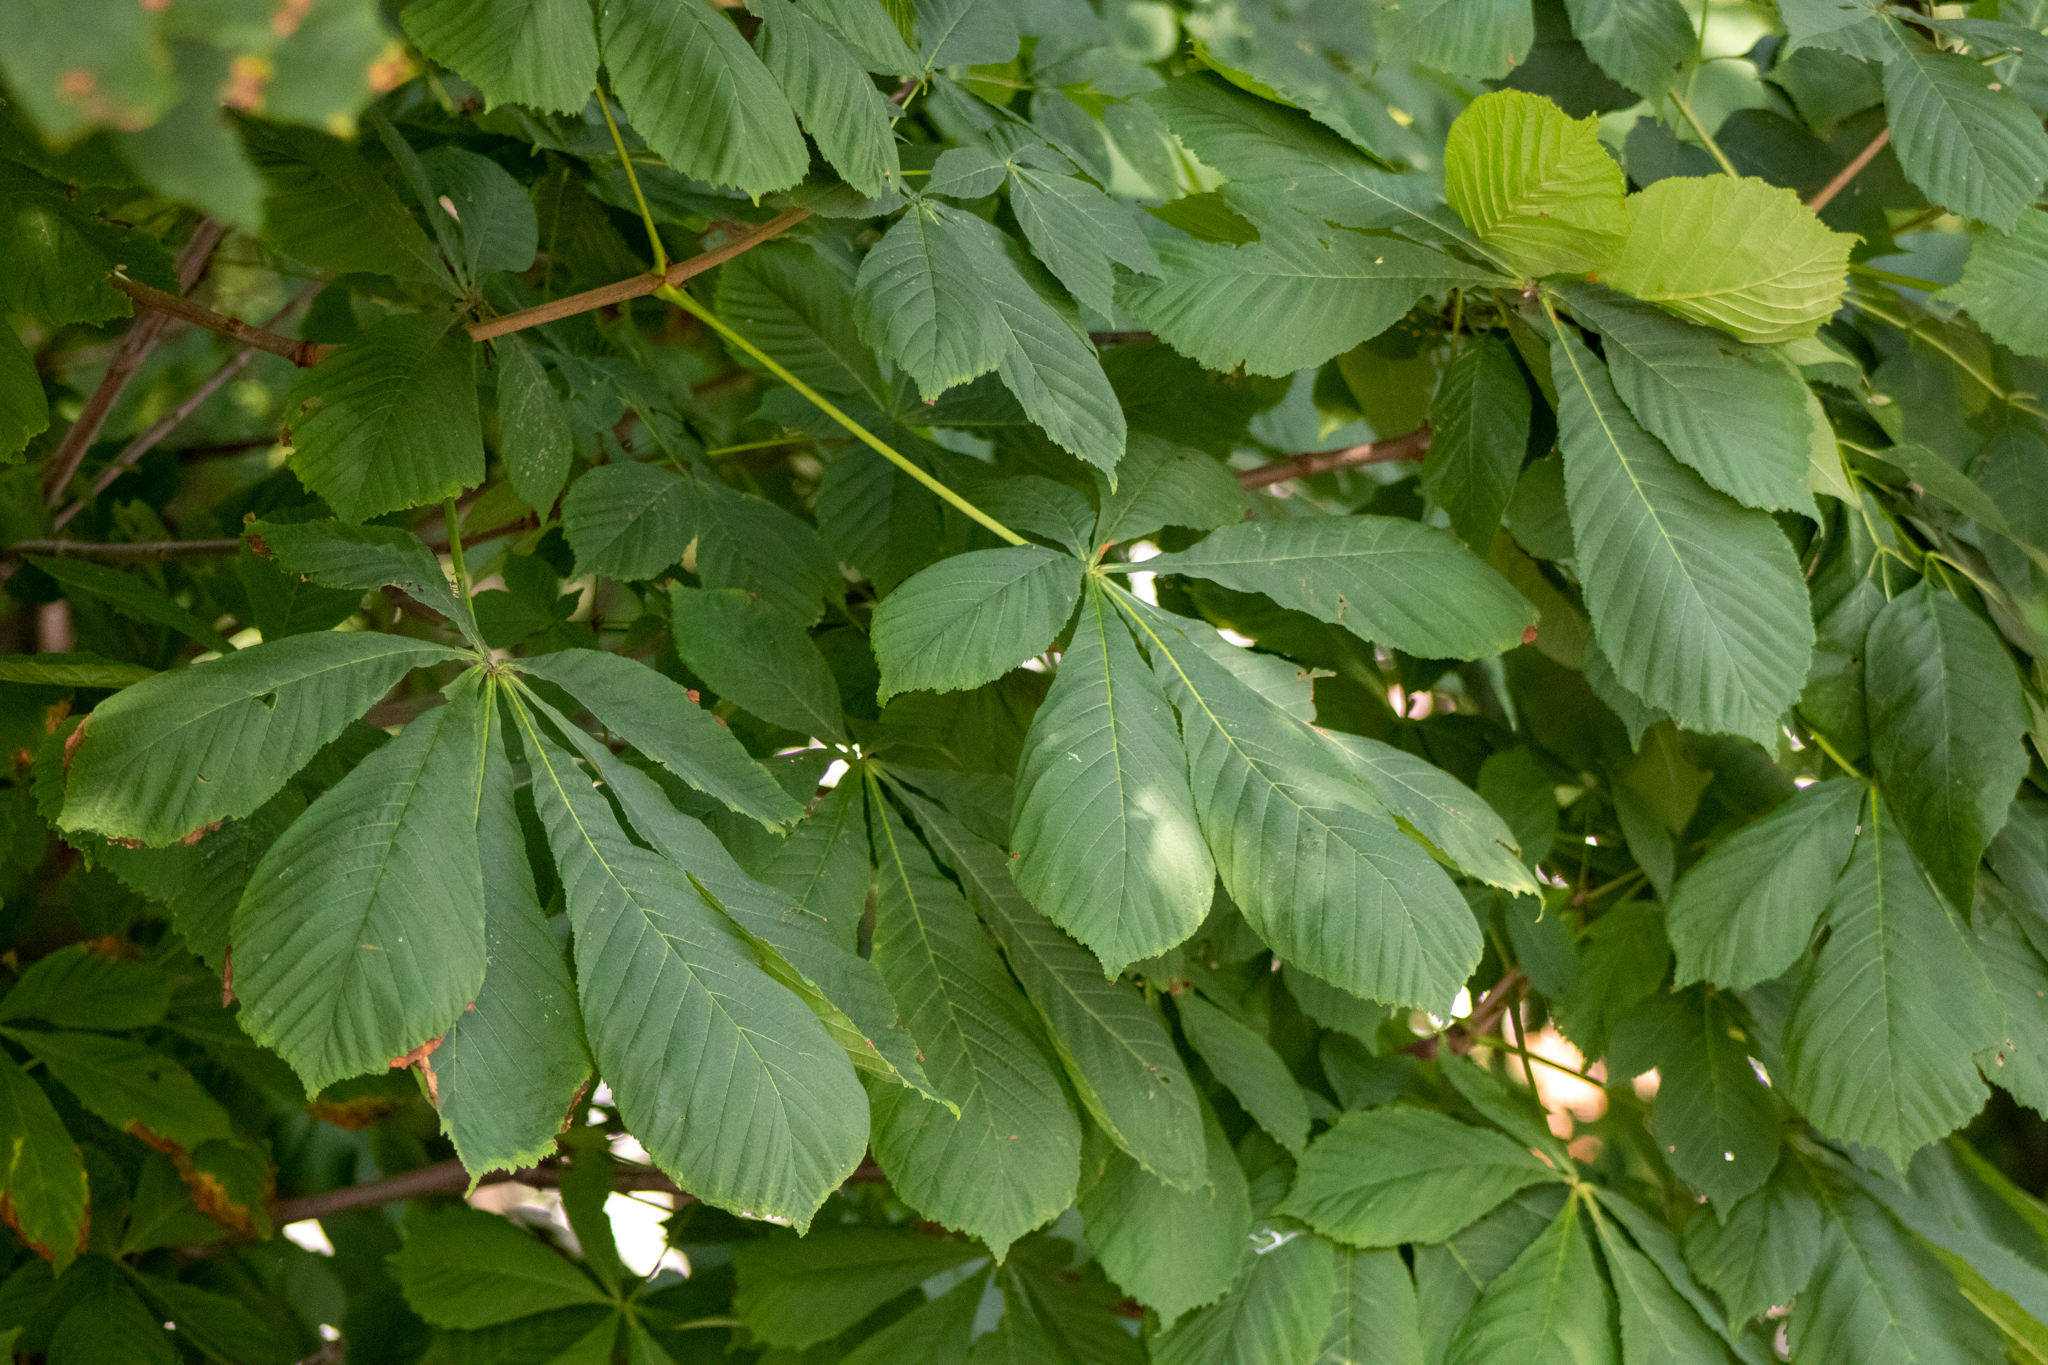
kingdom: Plantae
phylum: Tracheophyta
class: Magnoliopsida
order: Sapindales
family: Sapindaceae
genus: Aesculus
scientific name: Aesculus hippocastanum
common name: Horse-chestnut
